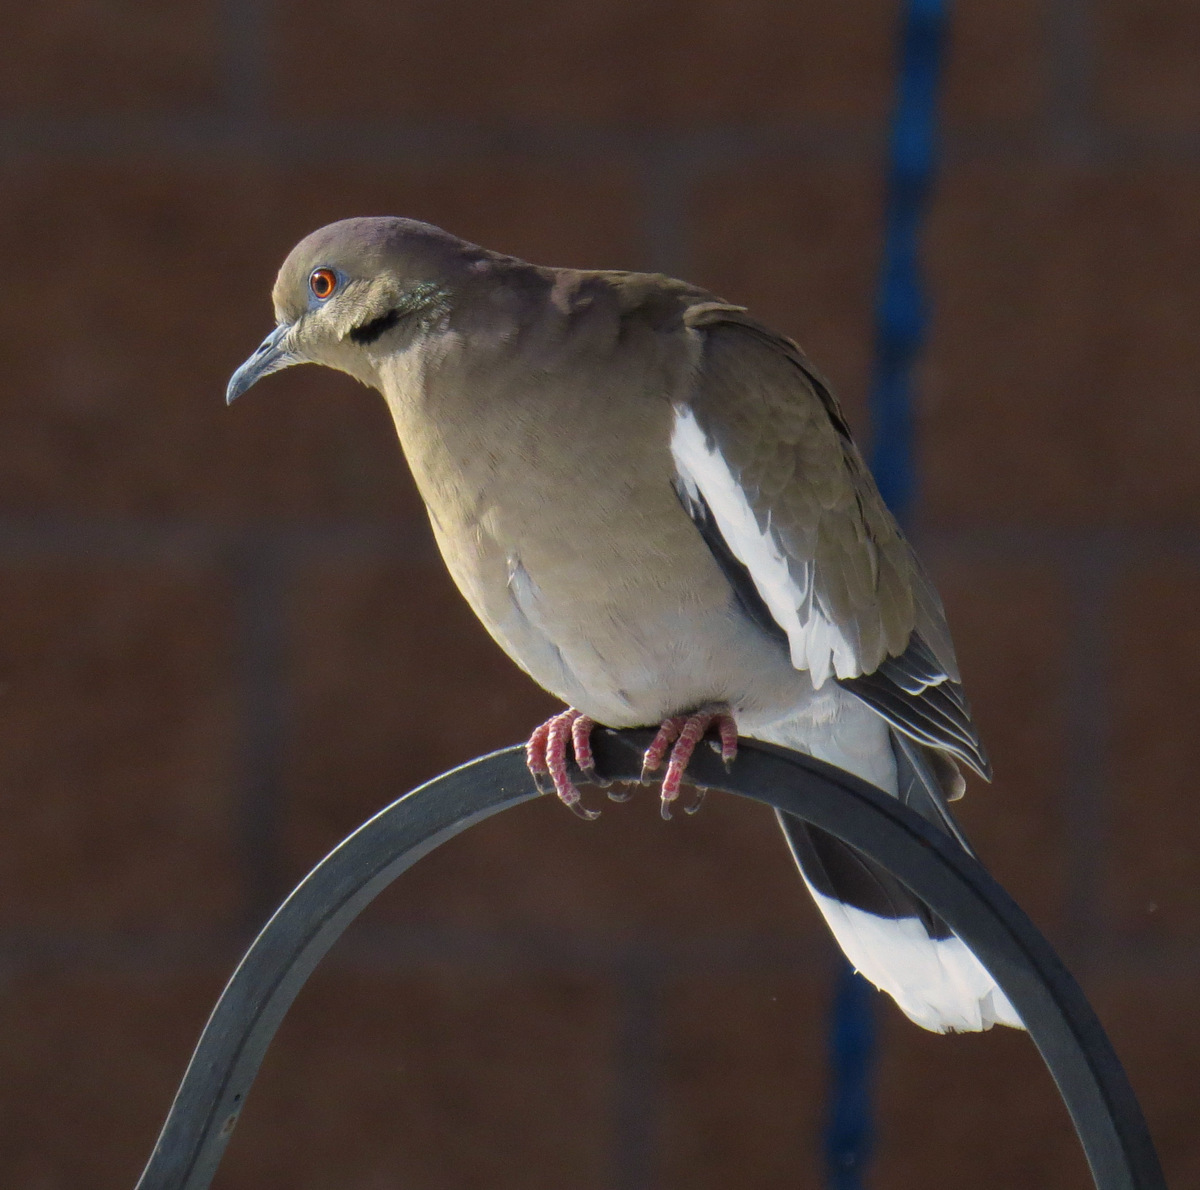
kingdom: Animalia
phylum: Chordata
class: Aves
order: Columbiformes
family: Columbidae
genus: Zenaida
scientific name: Zenaida asiatica
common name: White-winged dove
